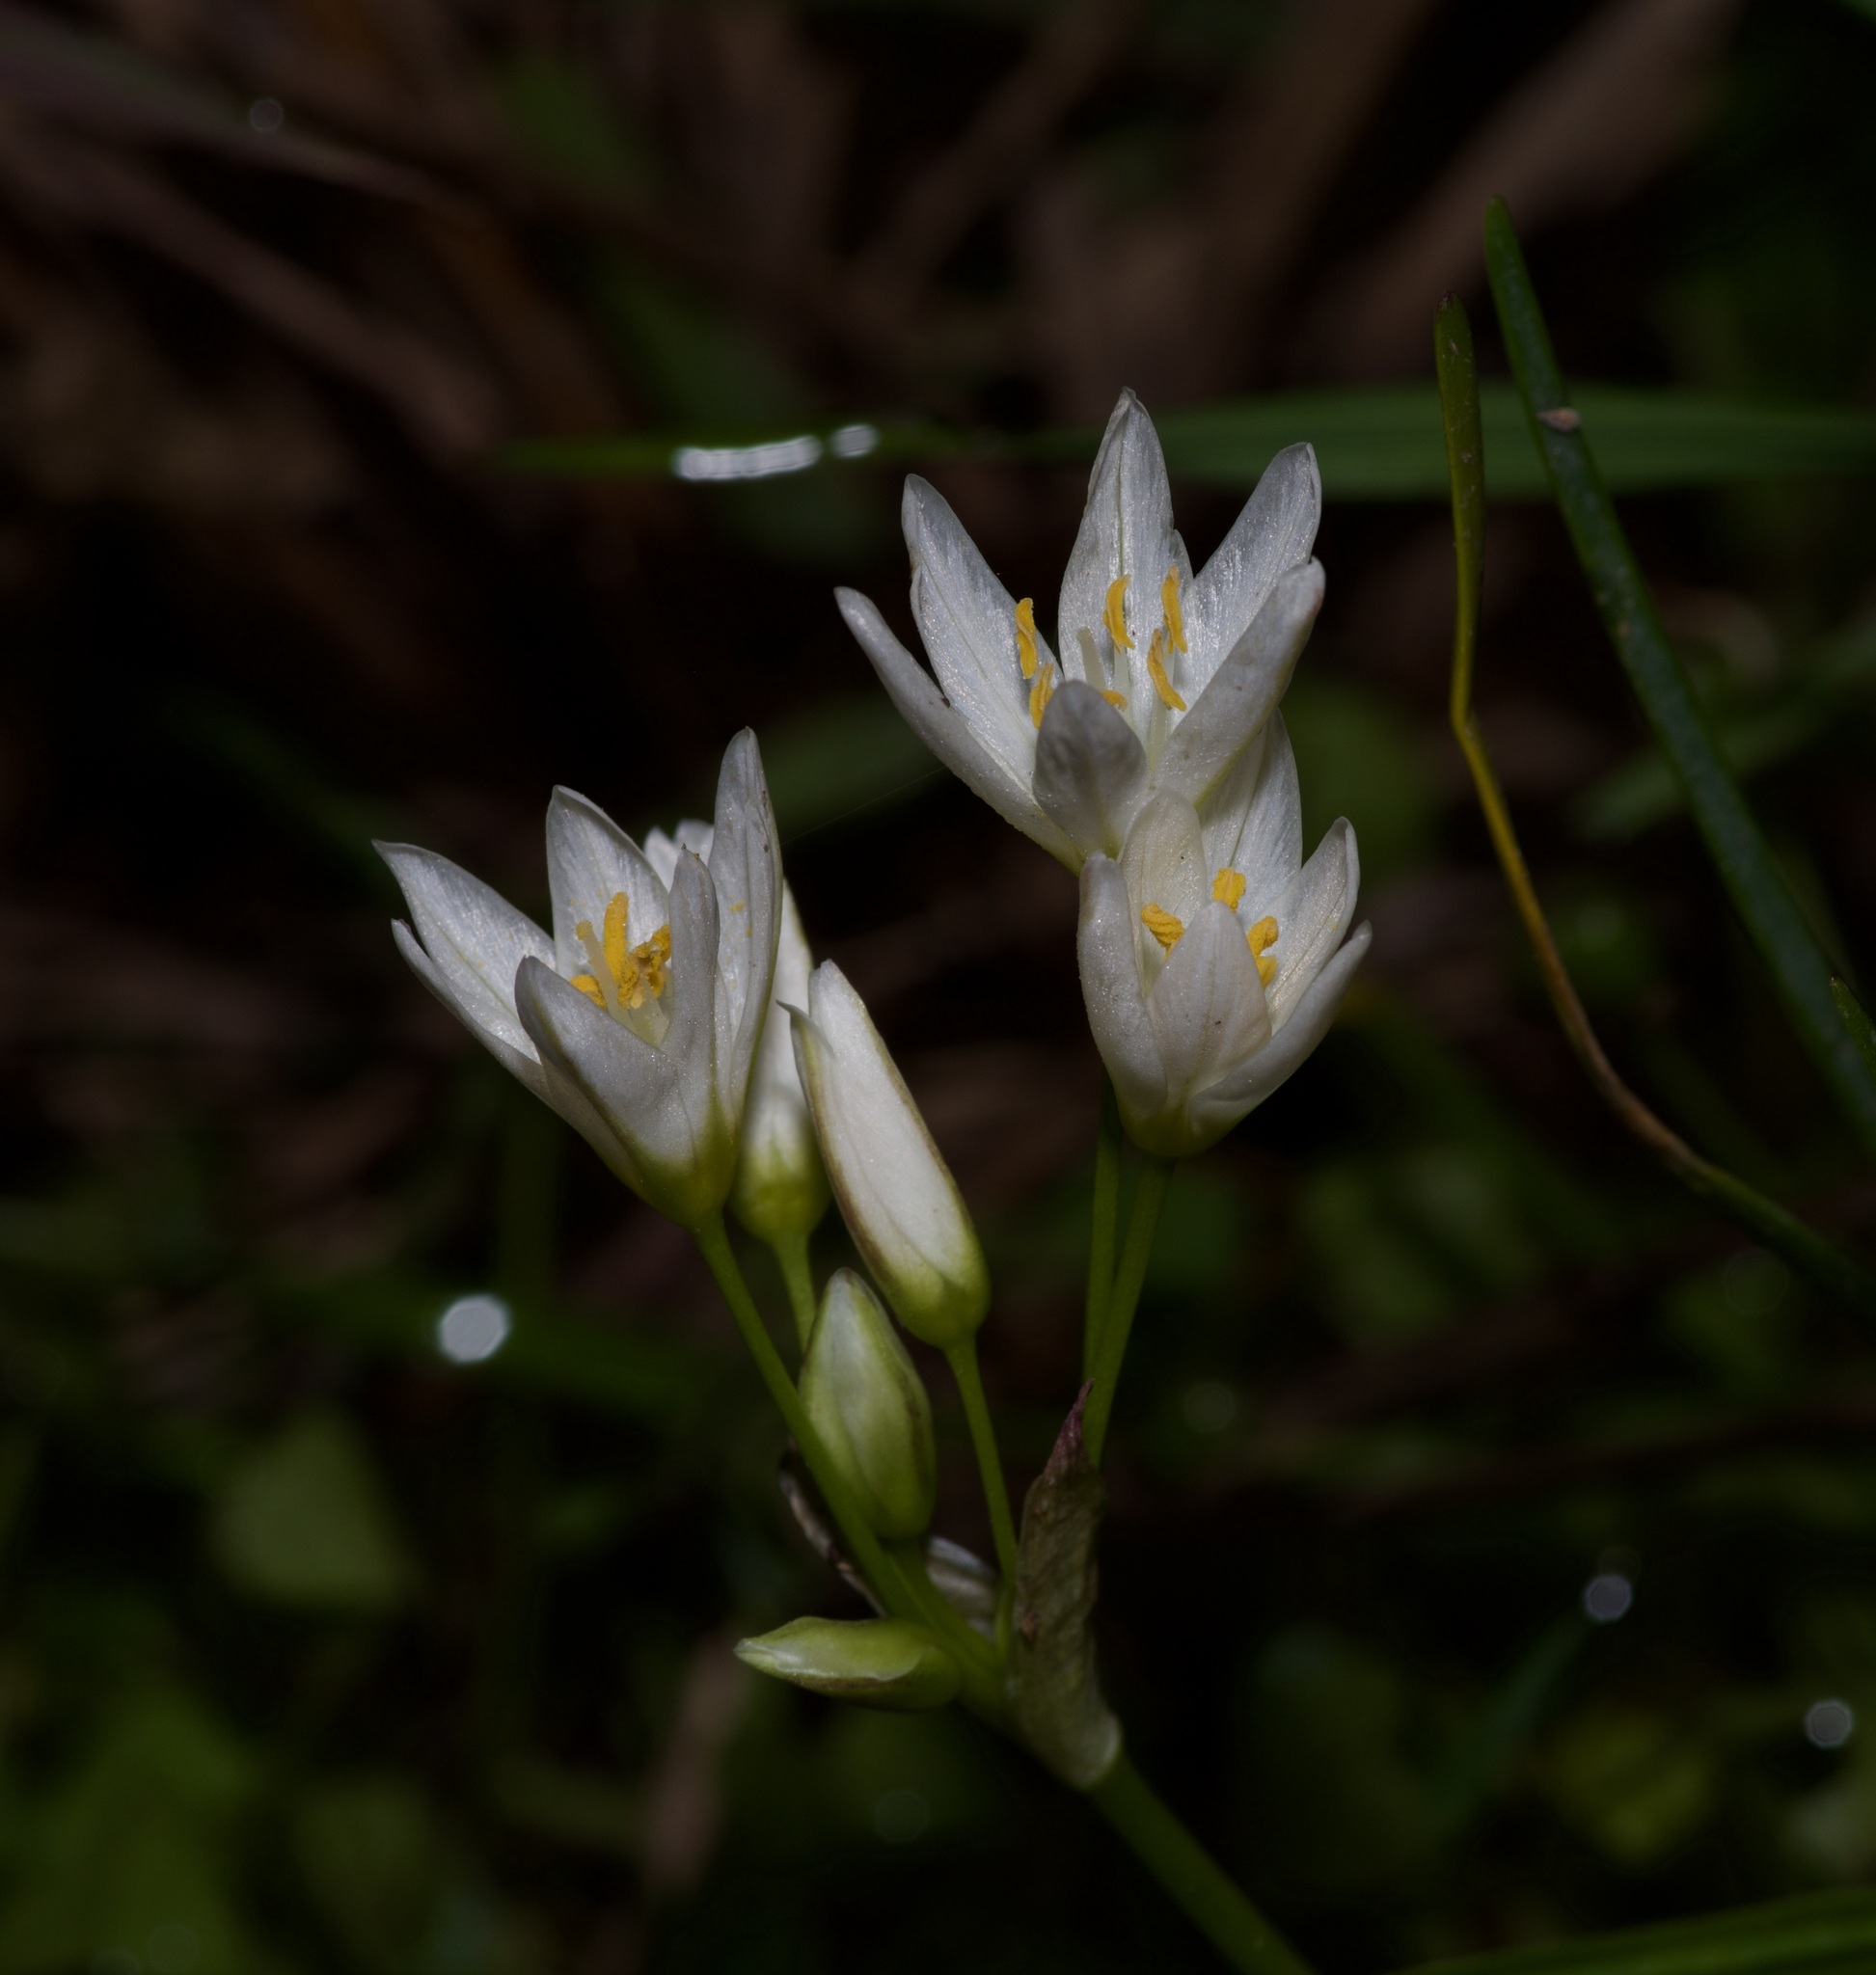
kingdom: Plantae
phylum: Tracheophyta
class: Liliopsida
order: Asparagales
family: Amaryllidaceae
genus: Nothoscordum
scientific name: Nothoscordum bivalve
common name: Crow-poison
